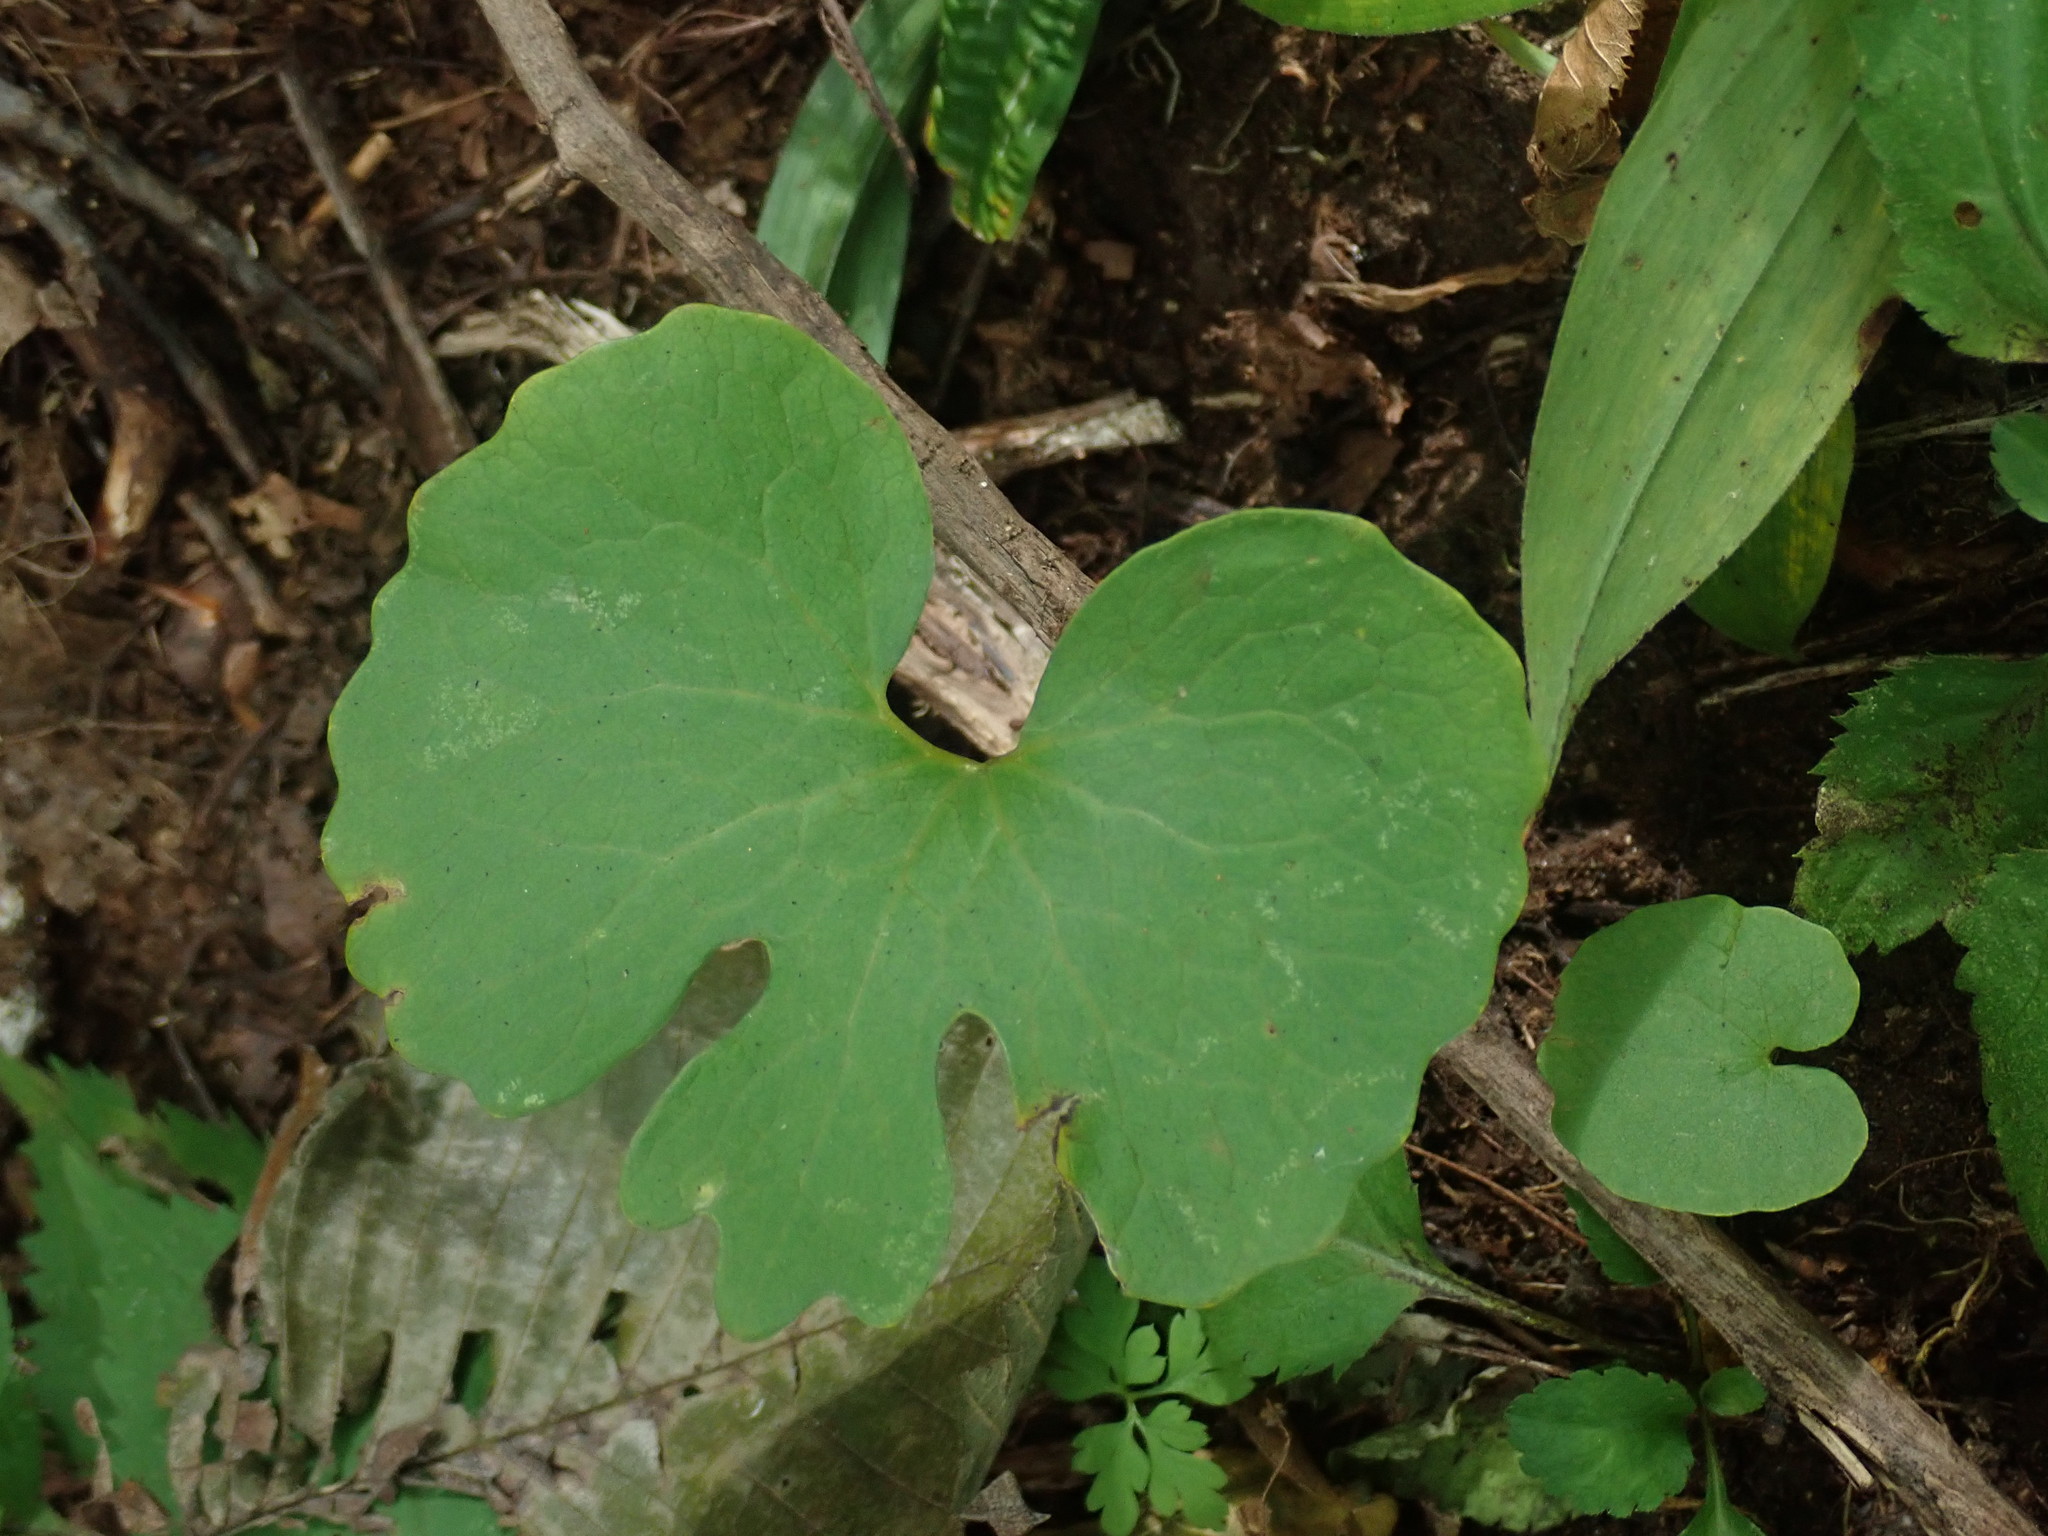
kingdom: Plantae
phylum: Tracheophyta
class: Magnoliopsida
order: Ranunculales
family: Papaveraceae
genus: Sanguinaria
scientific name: Sanguinaria canadensis
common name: Bloodroot
